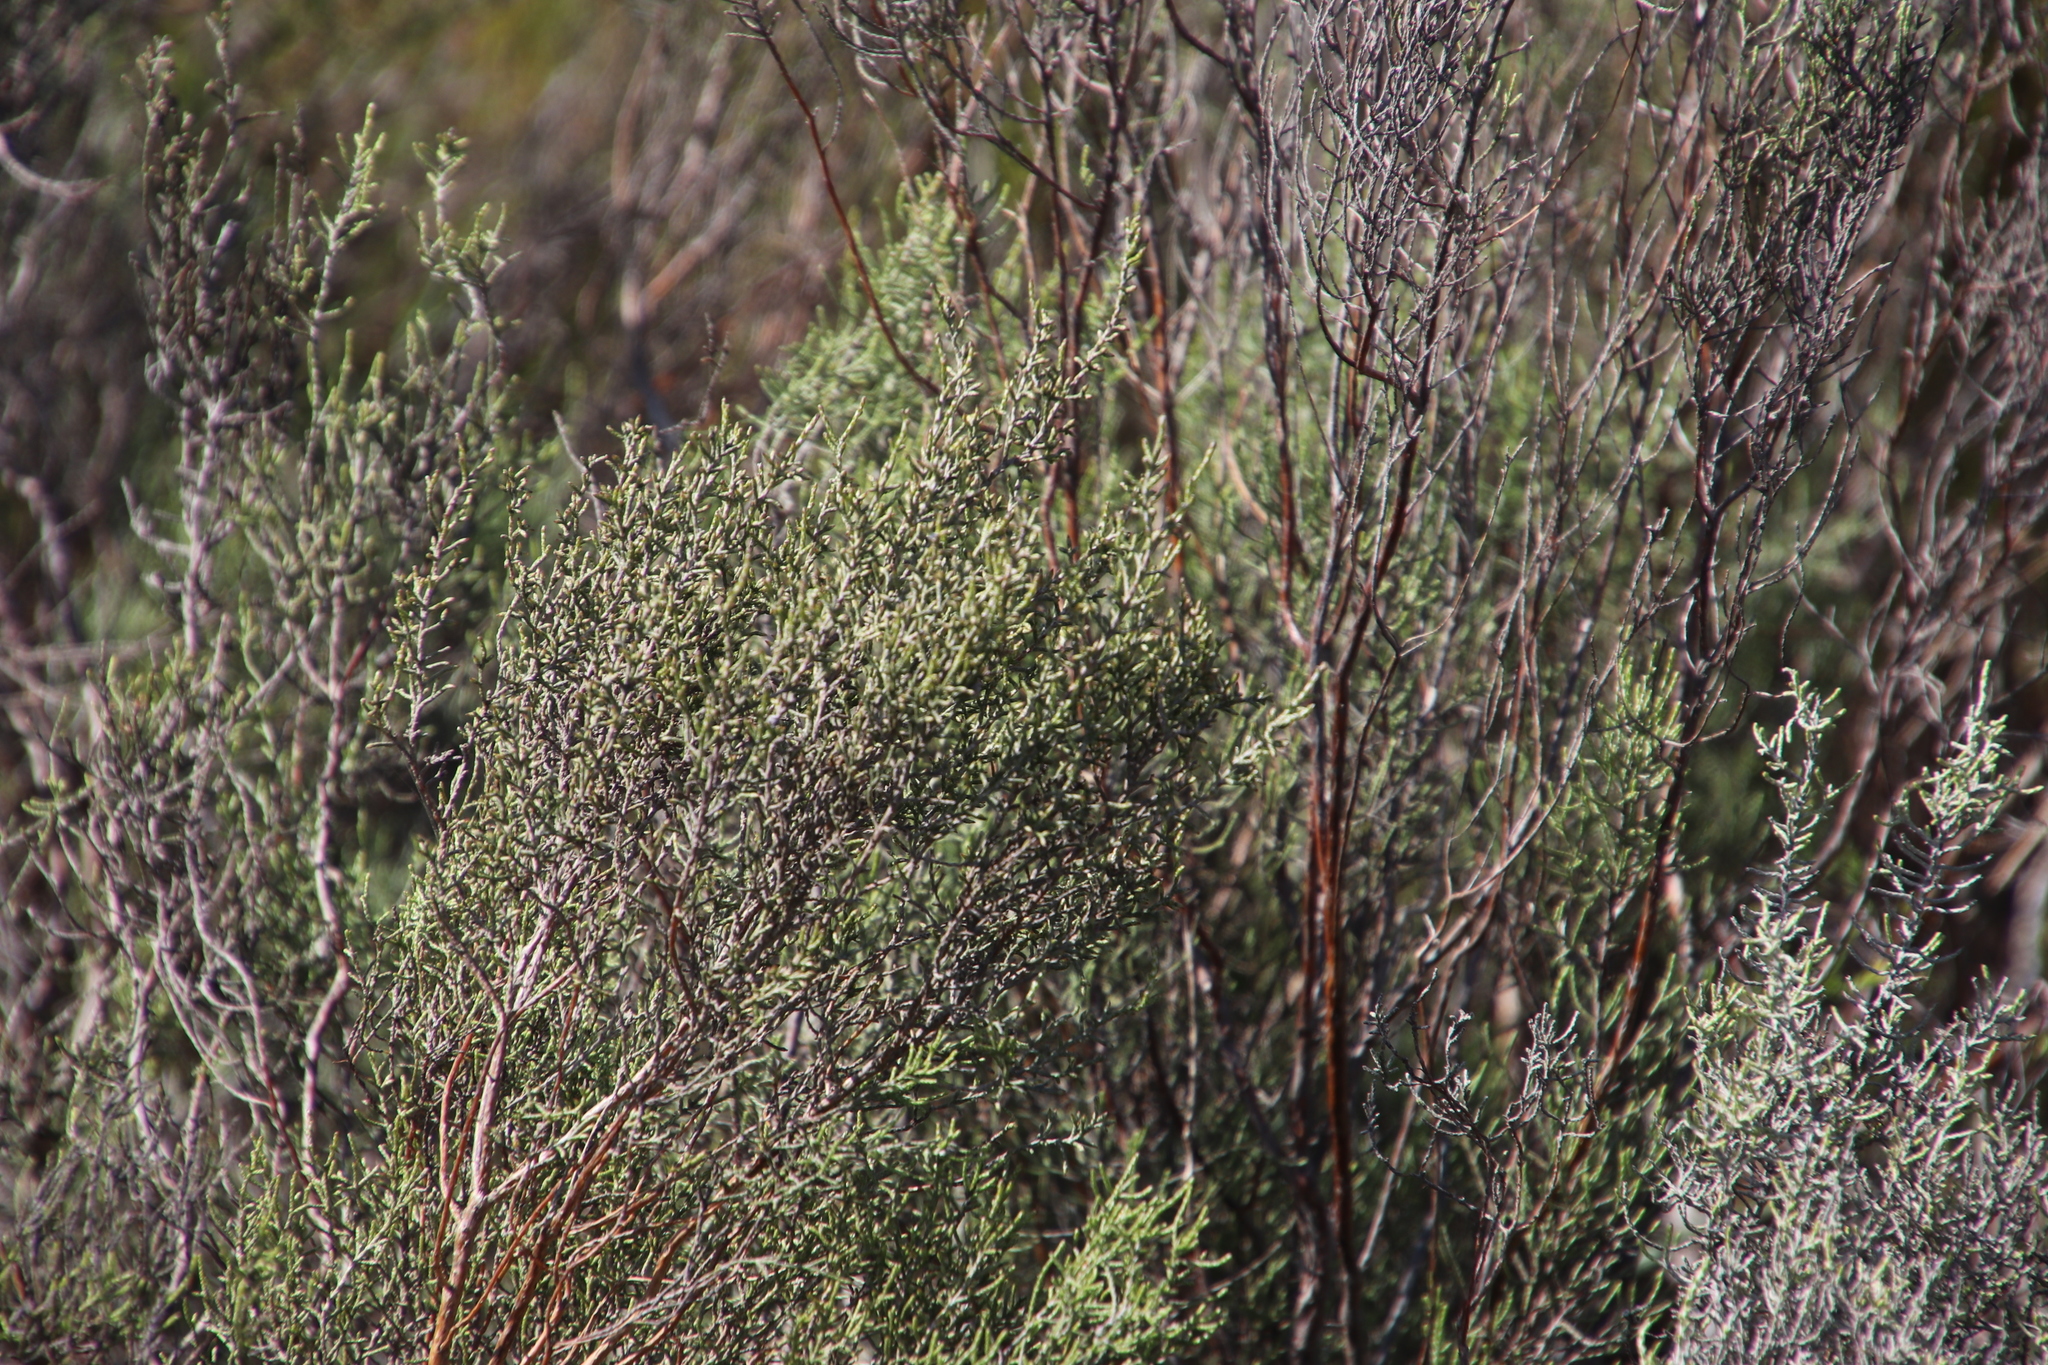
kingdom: Plantae
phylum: Tracheophyta
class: Magnoliopsida
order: Asterales
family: Asteraceae
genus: Dicerothamnus
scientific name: Dicerothamnus rhinocerotis
